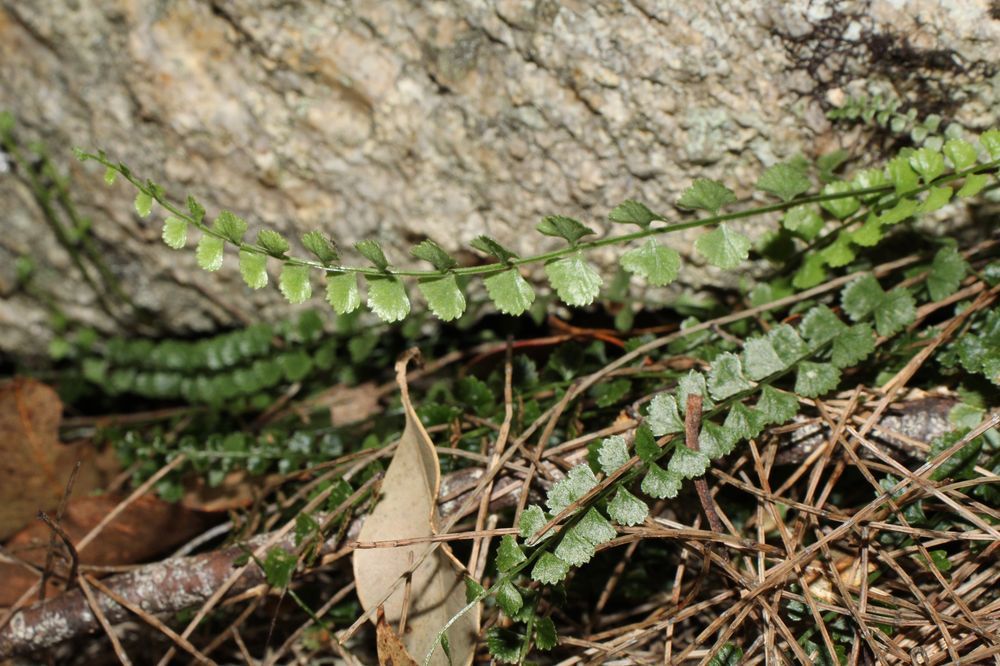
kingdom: Plantae
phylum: Tracheophyta
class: Polypodiopsida
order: Polypodiales
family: Aspleniaceae
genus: Asplenium
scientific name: Asplenium flabellifolium
